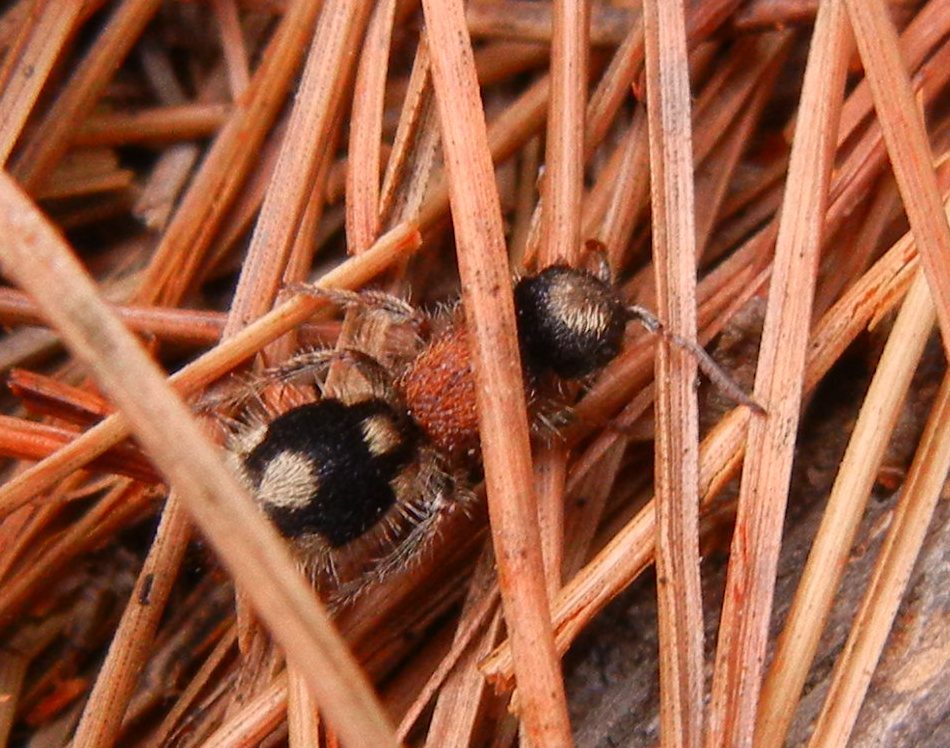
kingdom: Animalia
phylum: Arthropoda
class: Insecta
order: Hymenoptera
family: Mutillidae
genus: Ronisia
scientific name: Ronisia ghilianii
